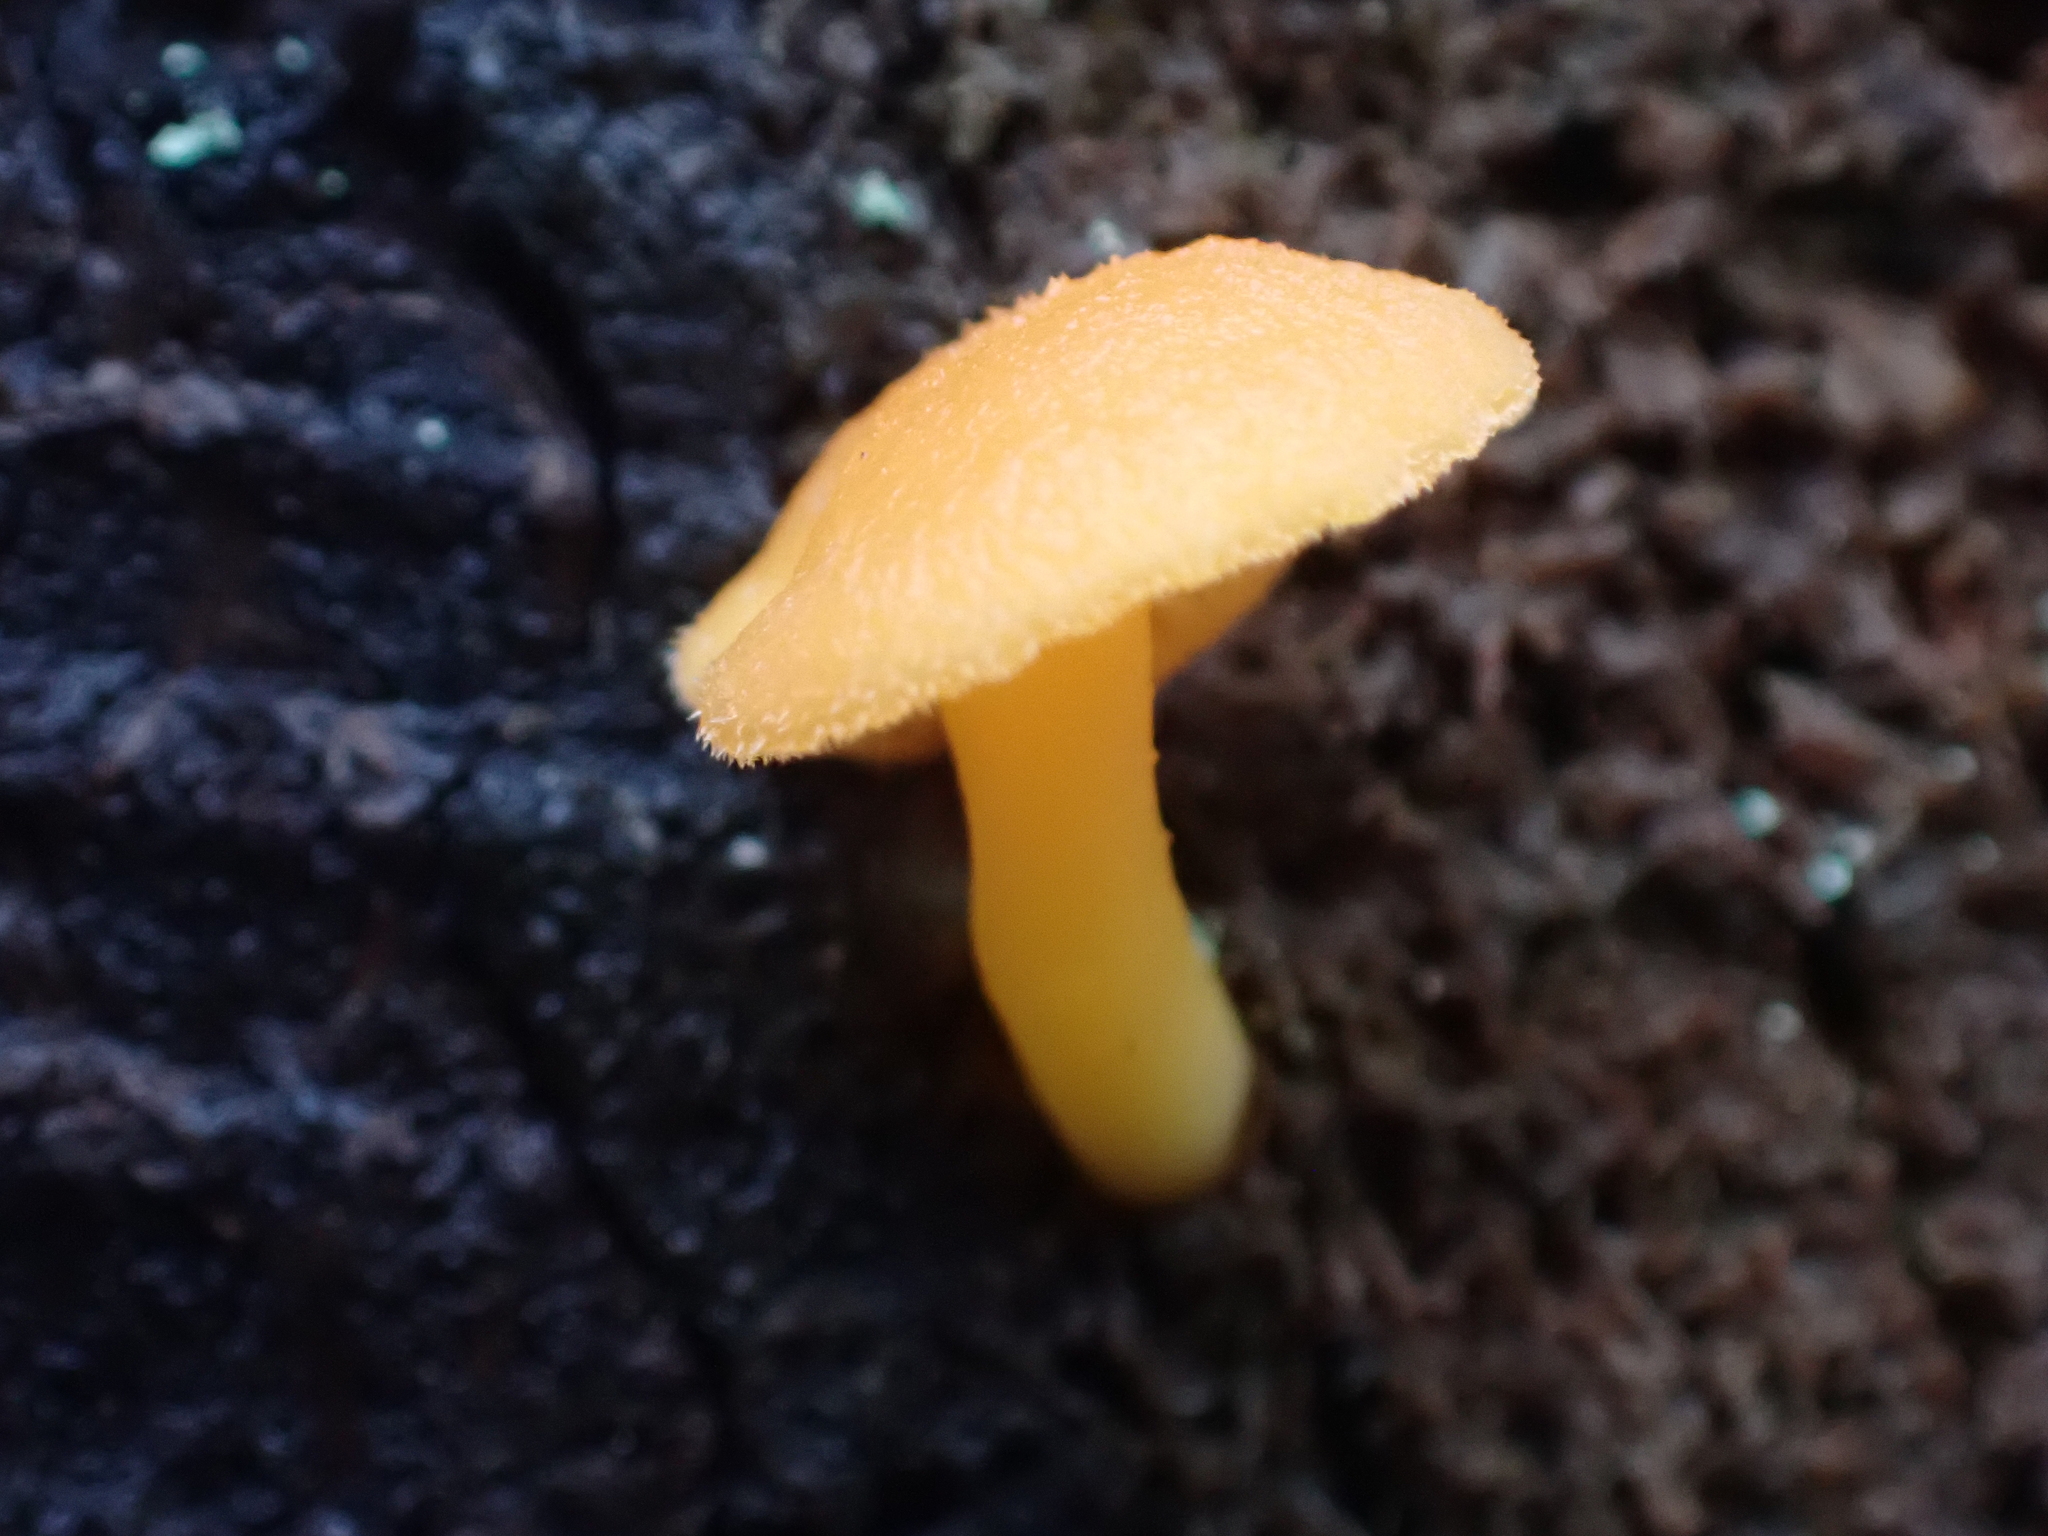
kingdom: Fungi
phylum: Basidiomycota
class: Agaricomycetes
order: Agaricales
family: Hygrophoraceae
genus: Chrysomphalina
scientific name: Chrysomphalina aurantiaca
